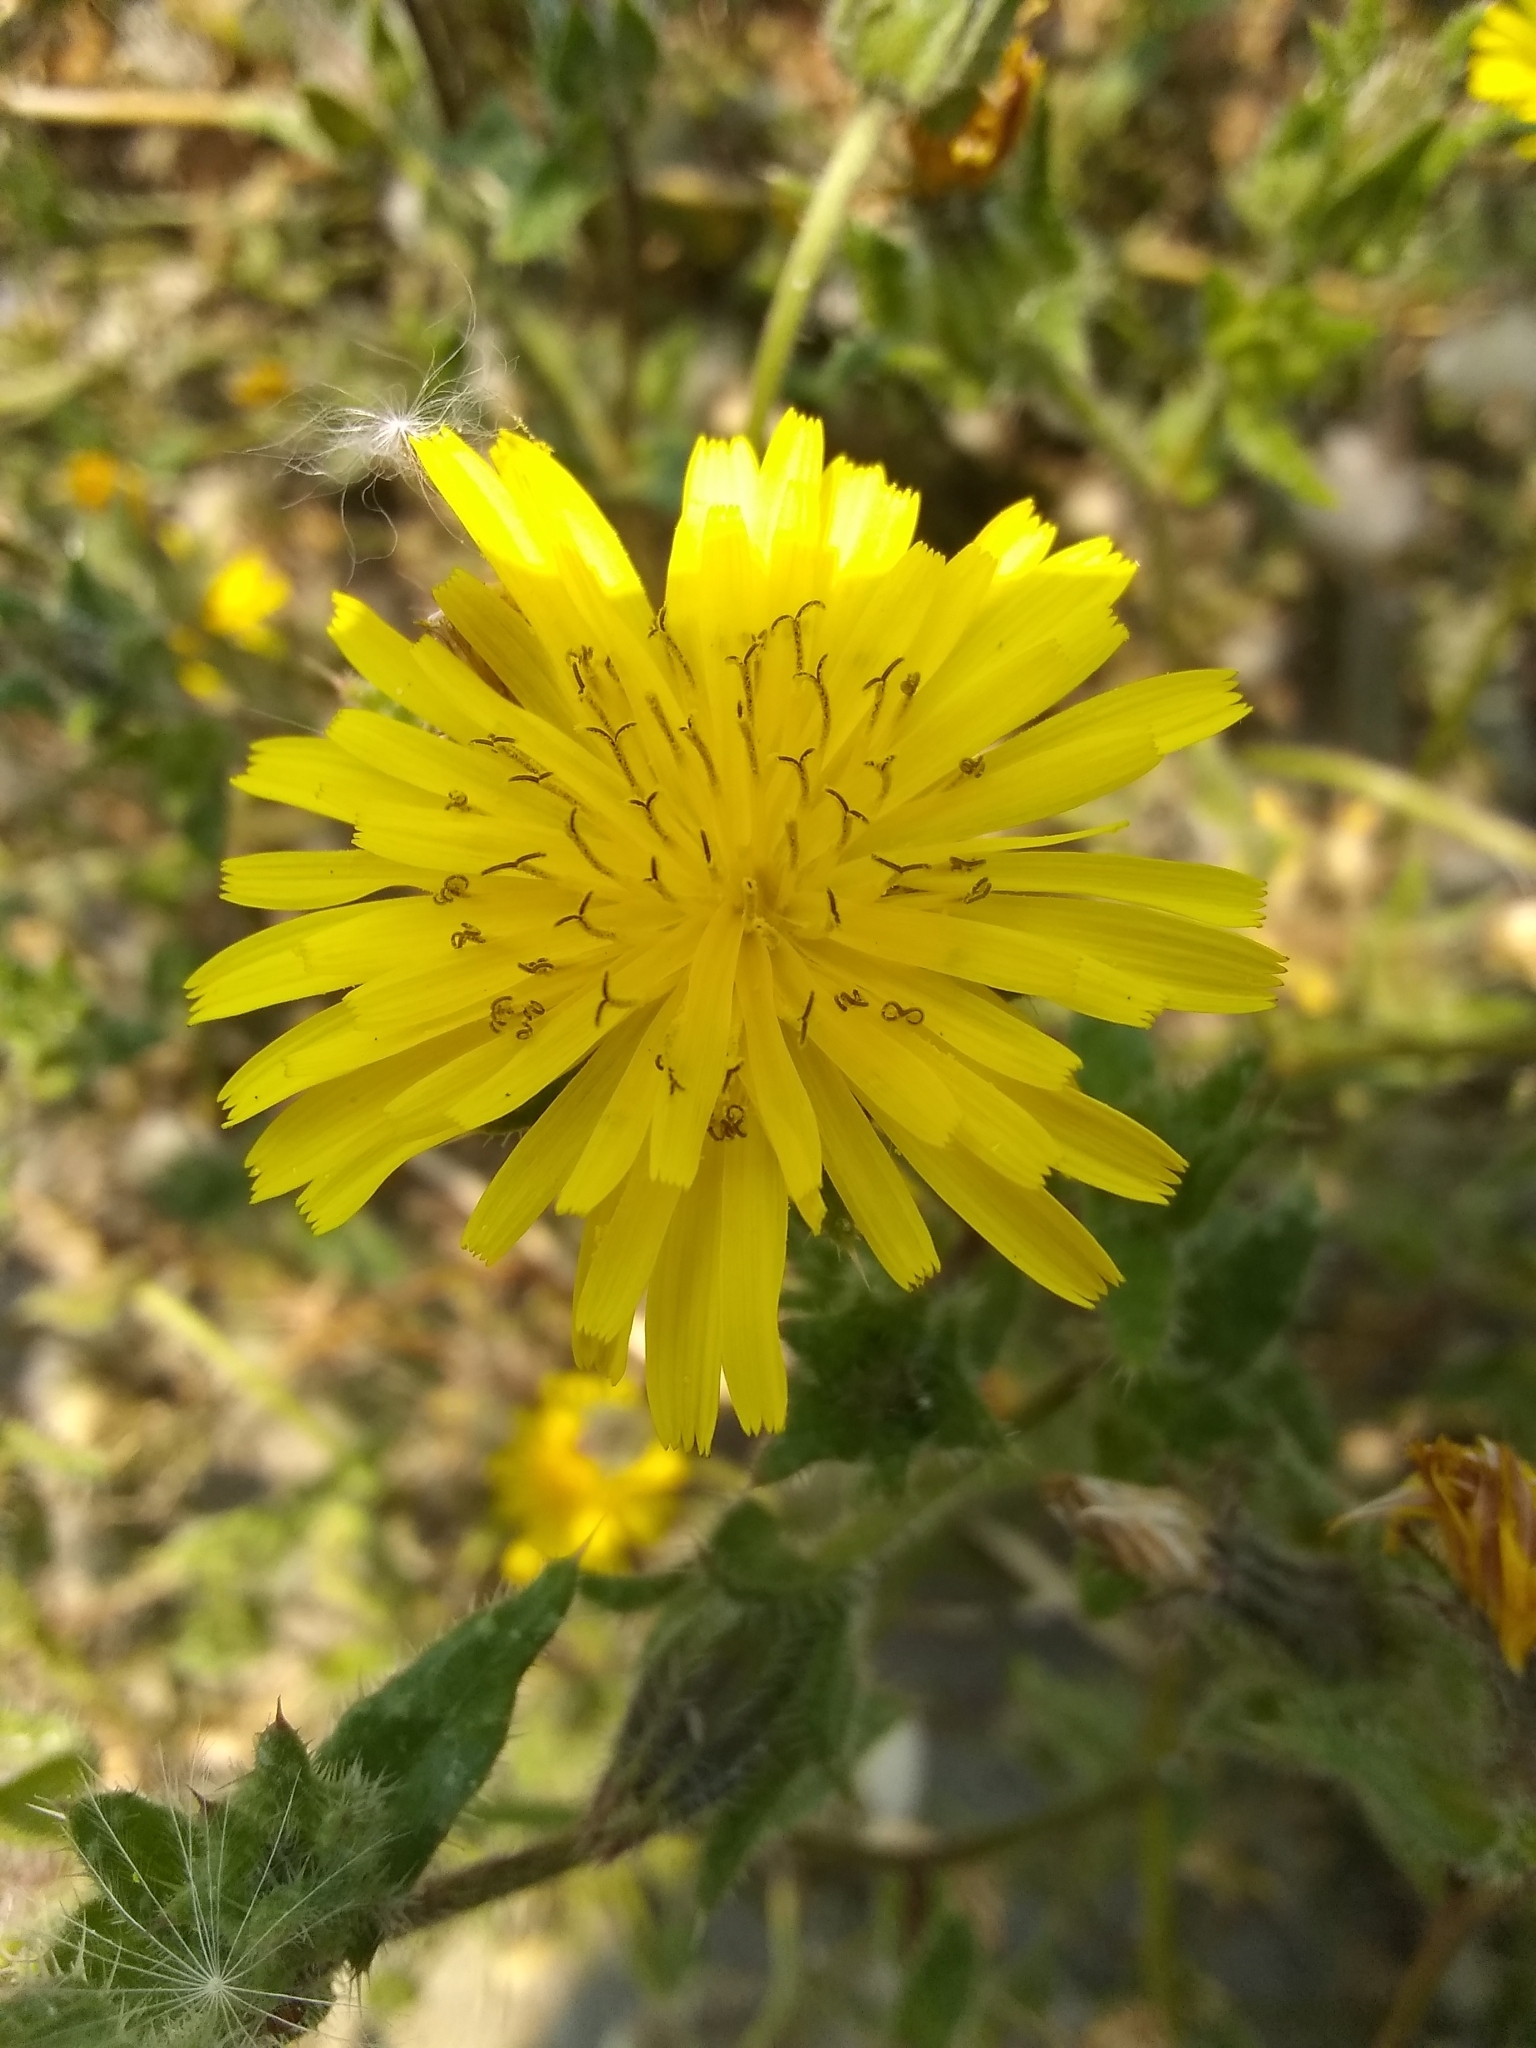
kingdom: Plantae
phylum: Tracheophyta
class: Magnoliopsida
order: Asterales
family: Asteraceae
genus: Helminthotheca
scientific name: Helminthotheca echioides
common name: Ox-tongue
